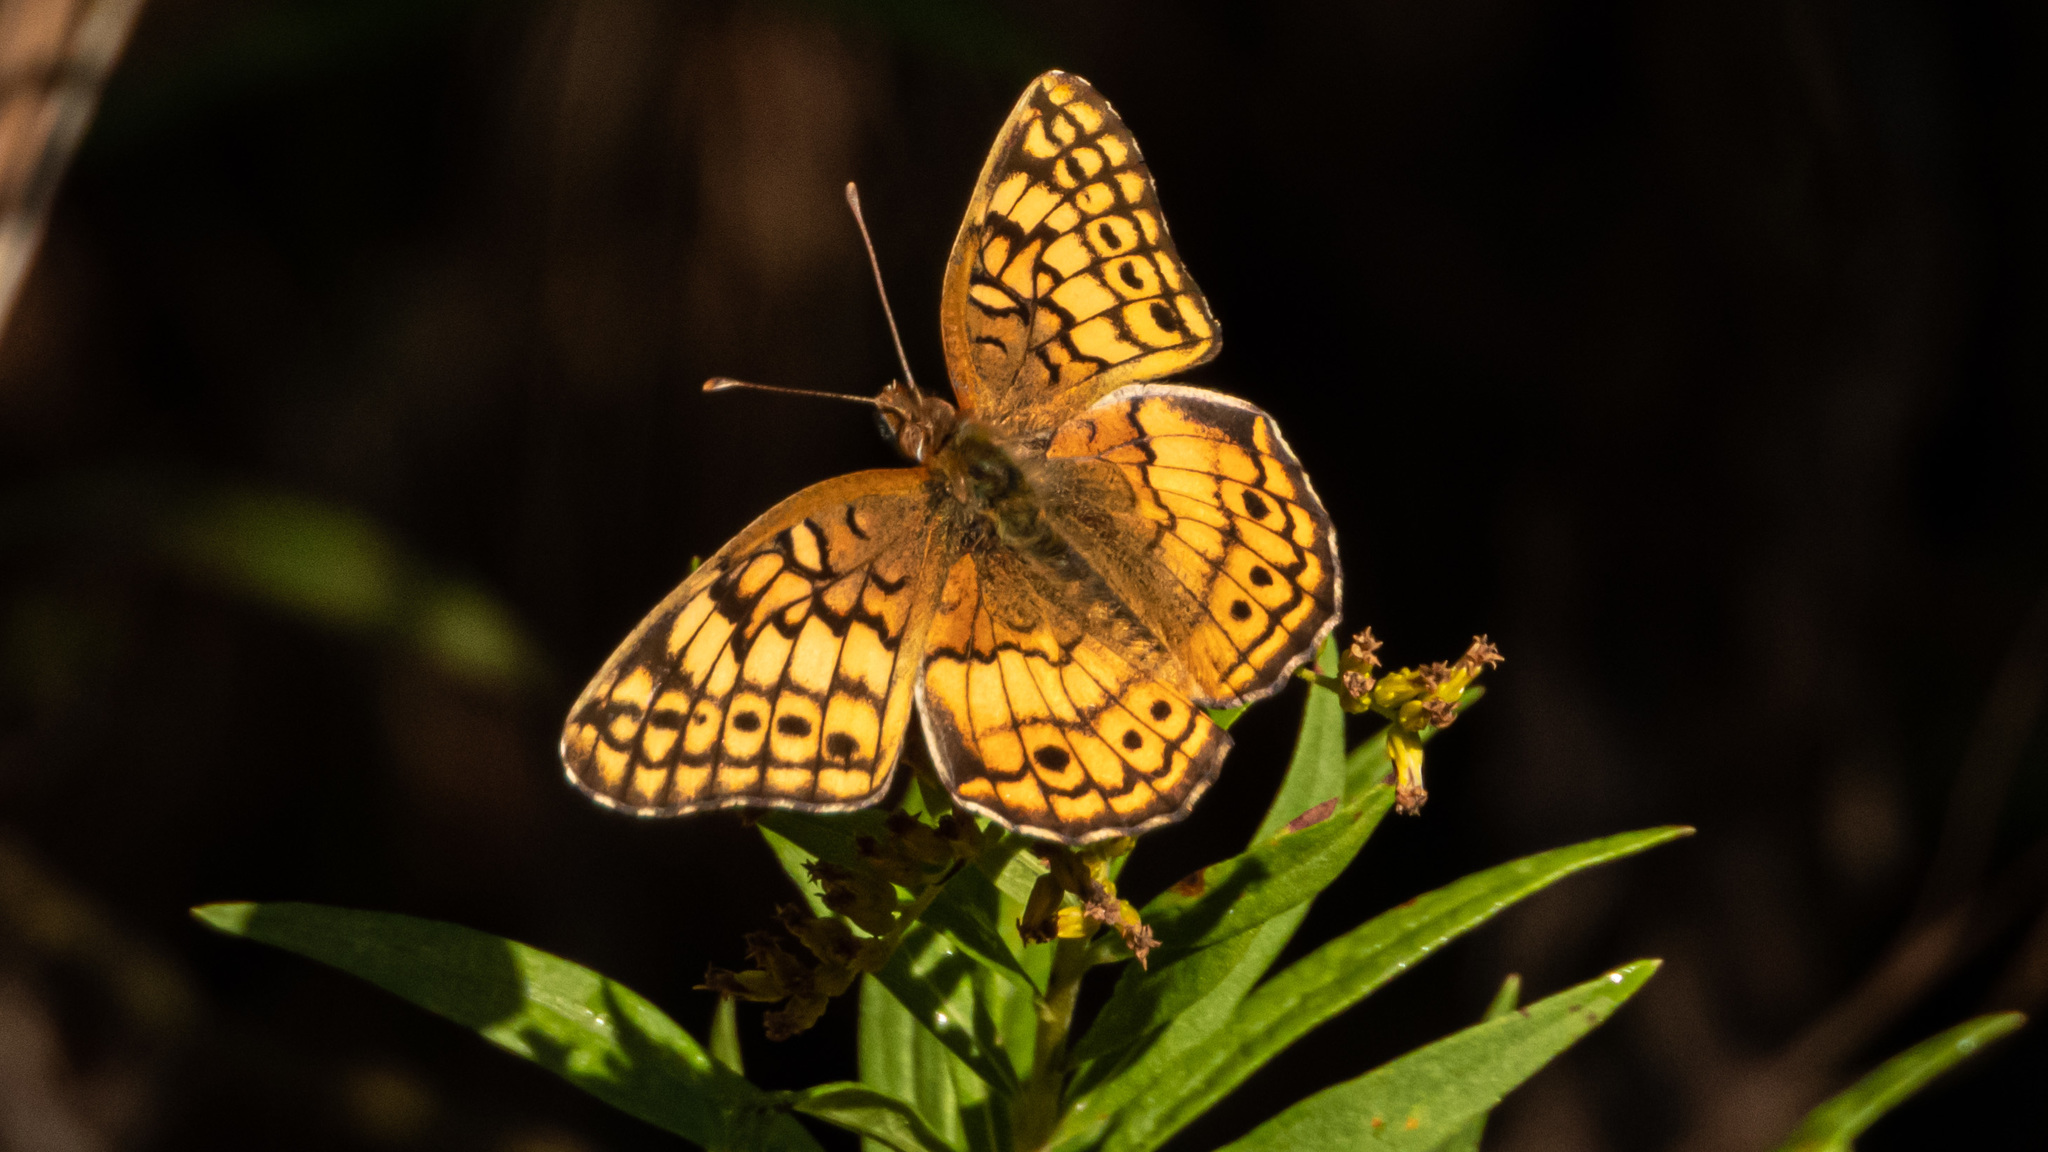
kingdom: Animalia
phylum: Arthropoda
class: Insecta
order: Lepidoptera
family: Nymphalidae
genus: Euptoieta
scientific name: Euptoieta claudia
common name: Variegated fritillary
